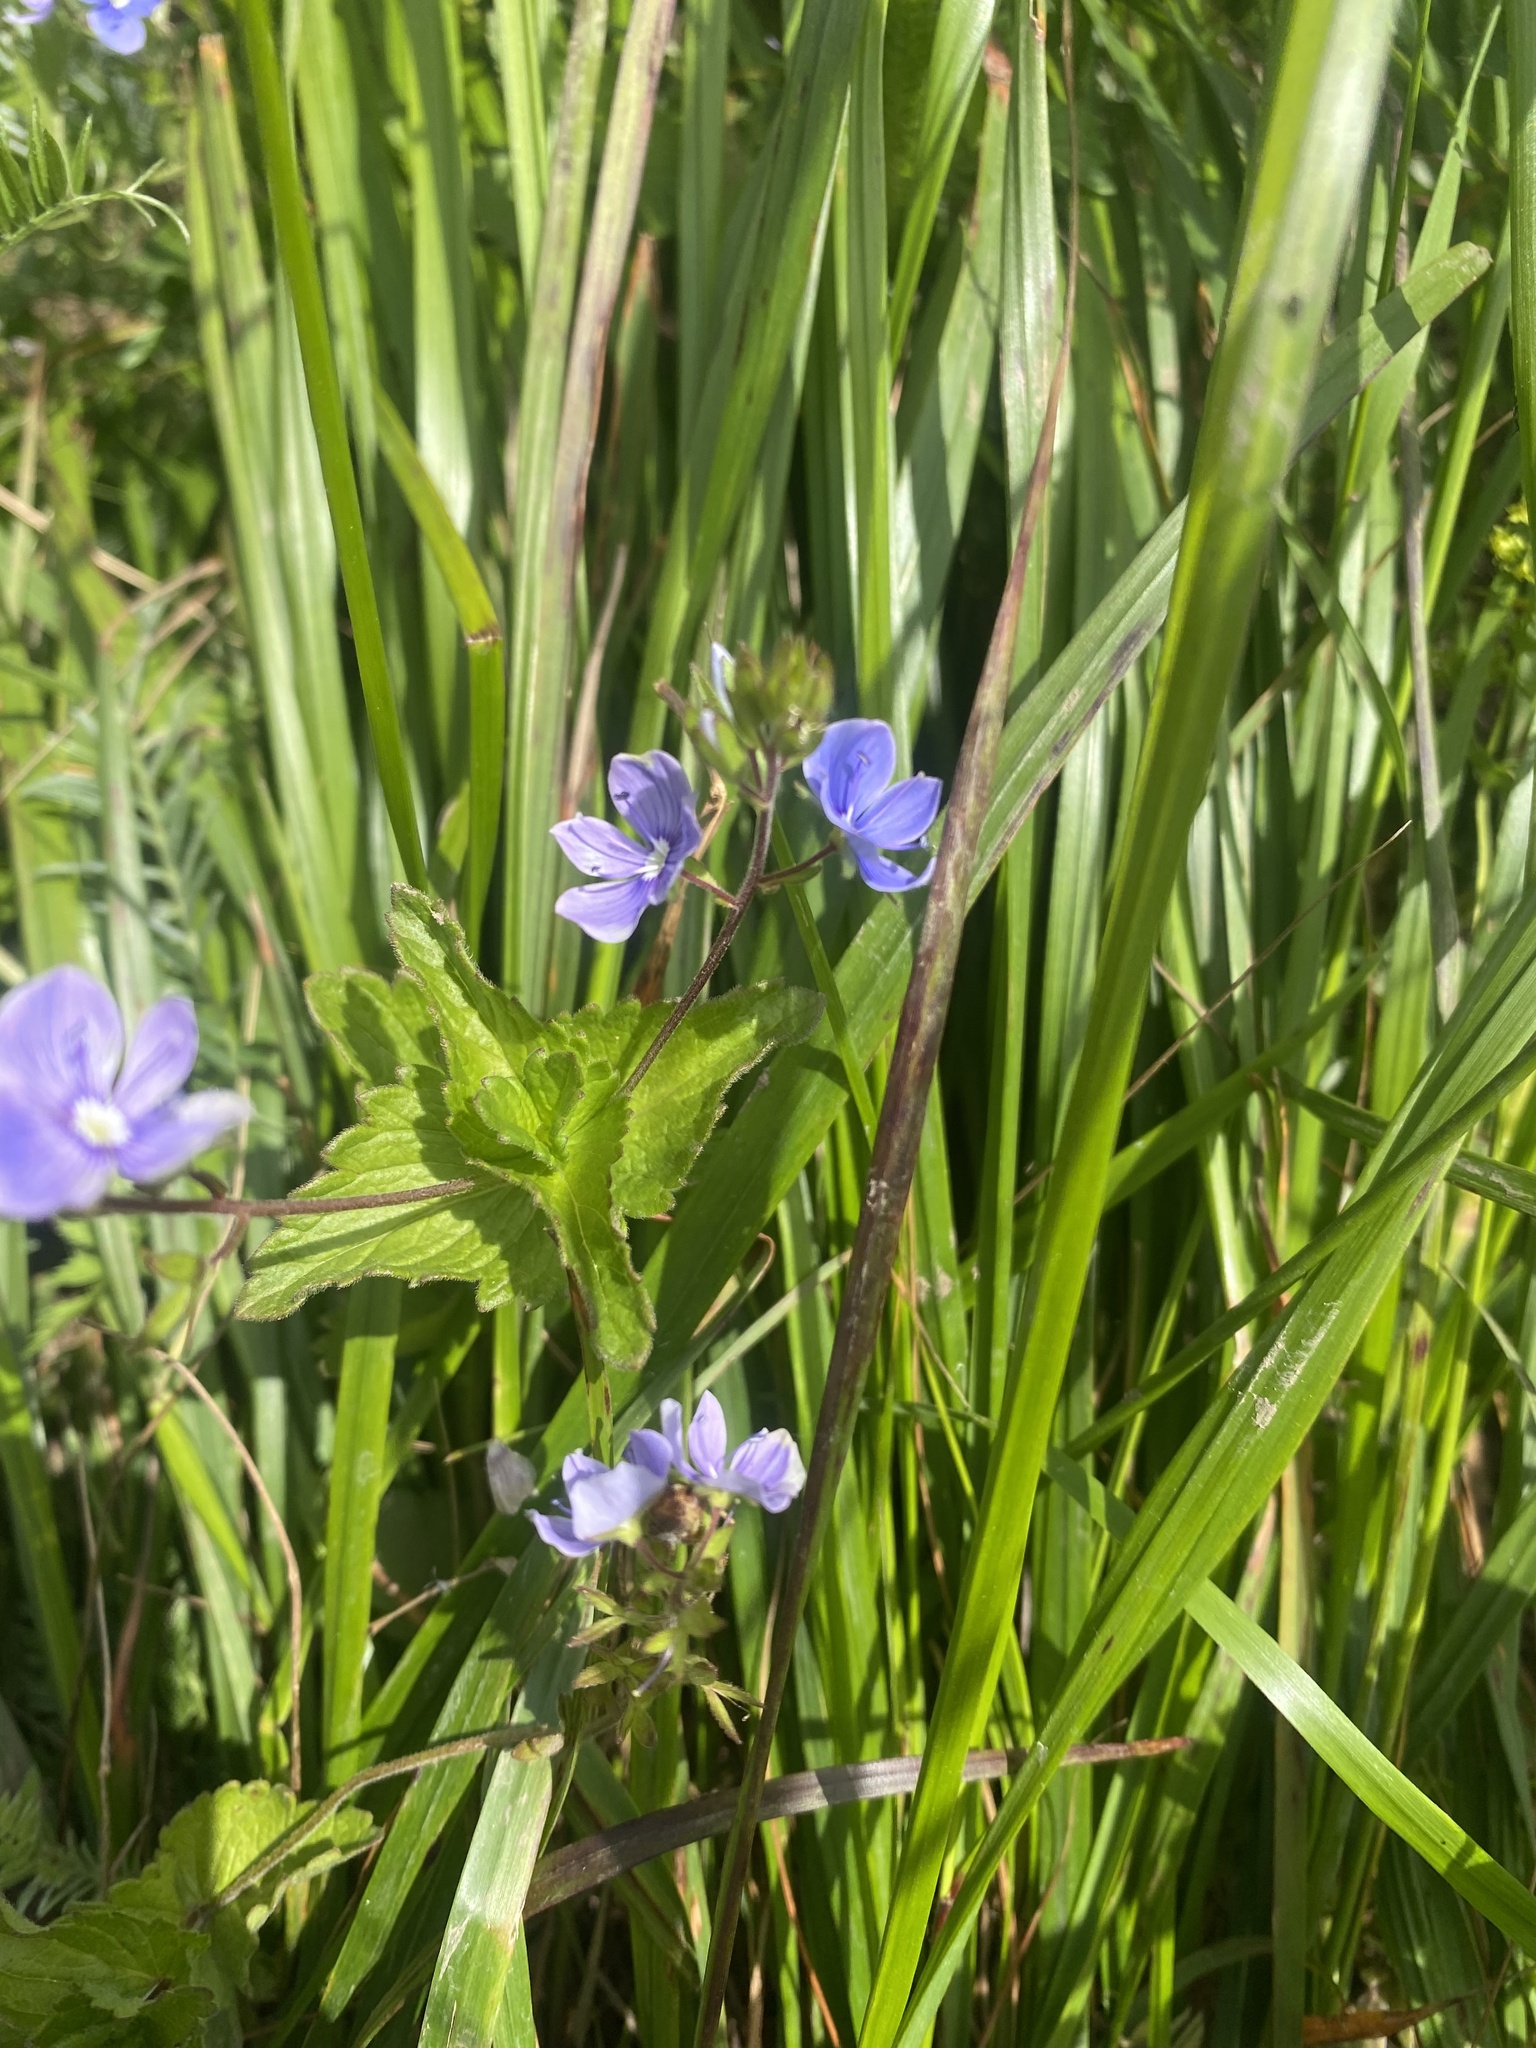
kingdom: Plantae
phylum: Tracheophyta
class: Magnoliopsida
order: Lamiales
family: Plantaginaceae
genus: Veronica
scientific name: Veronica chamaedrys
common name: Germander speedwell
